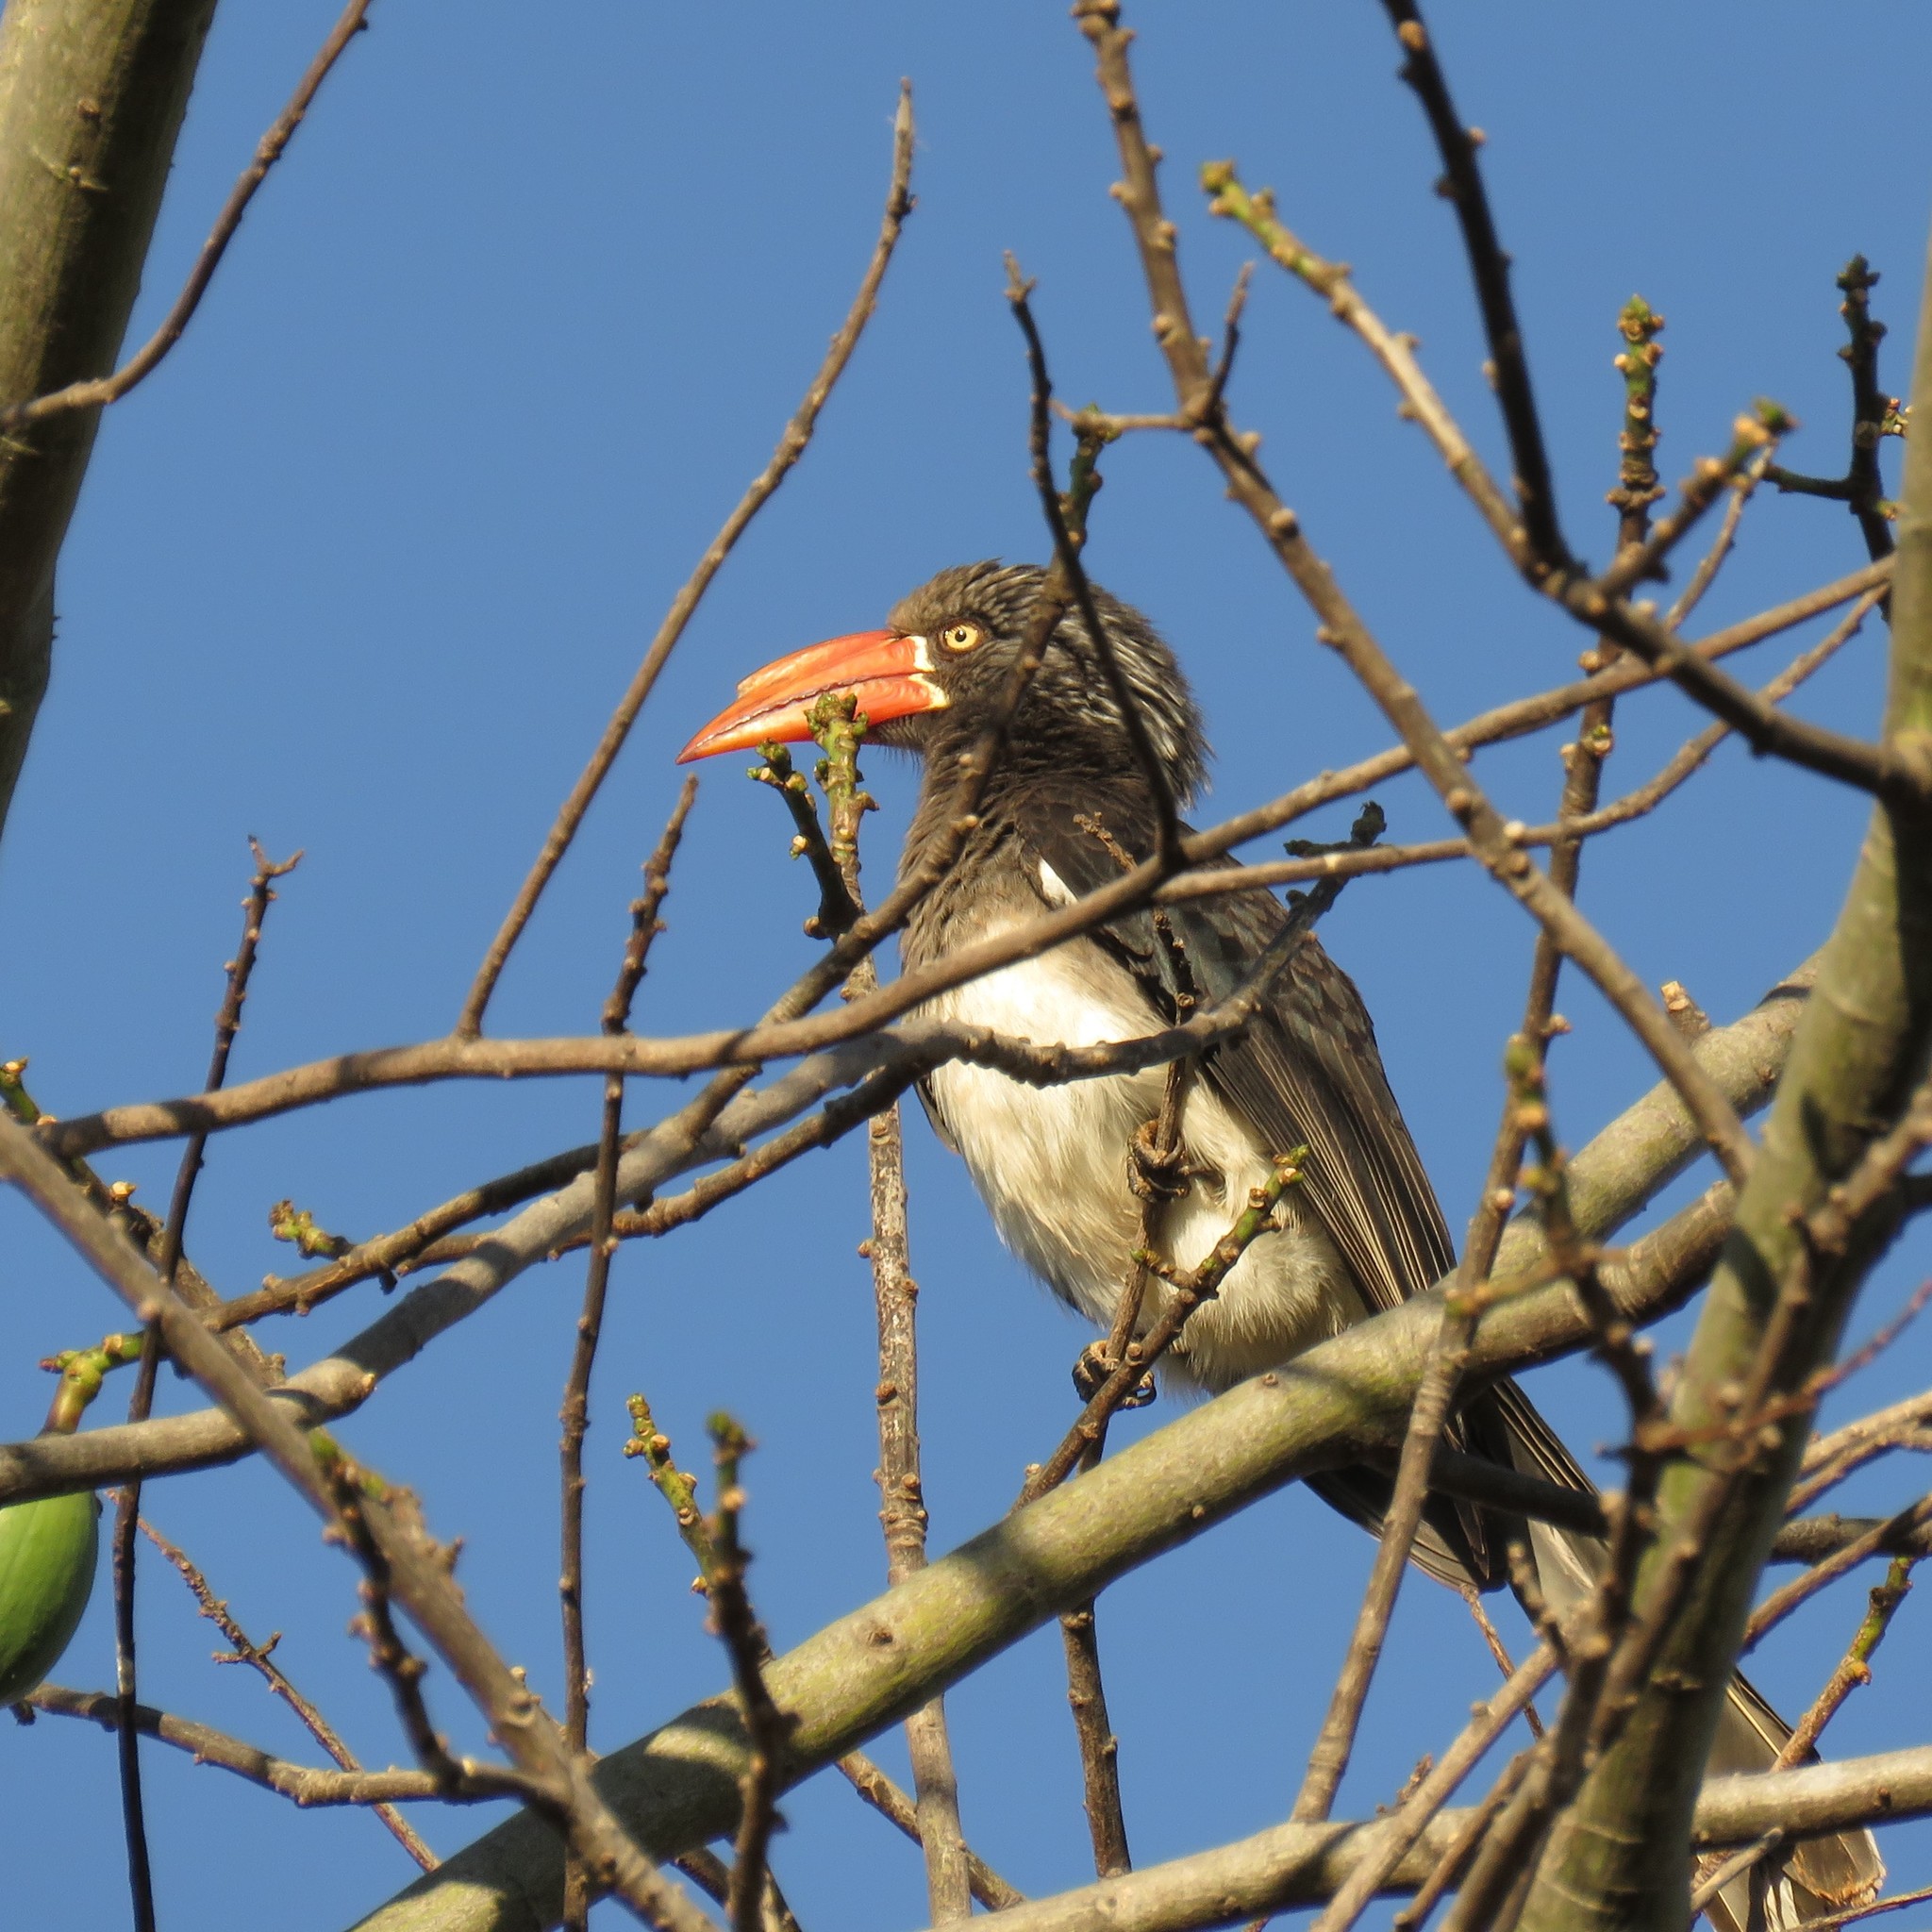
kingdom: Animalia
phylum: Chordata
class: Aves
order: Bucerotiformes
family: Bucerotidae
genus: Lophoceros
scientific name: Lophoceros alboterminatus
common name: Crowned hornbill
